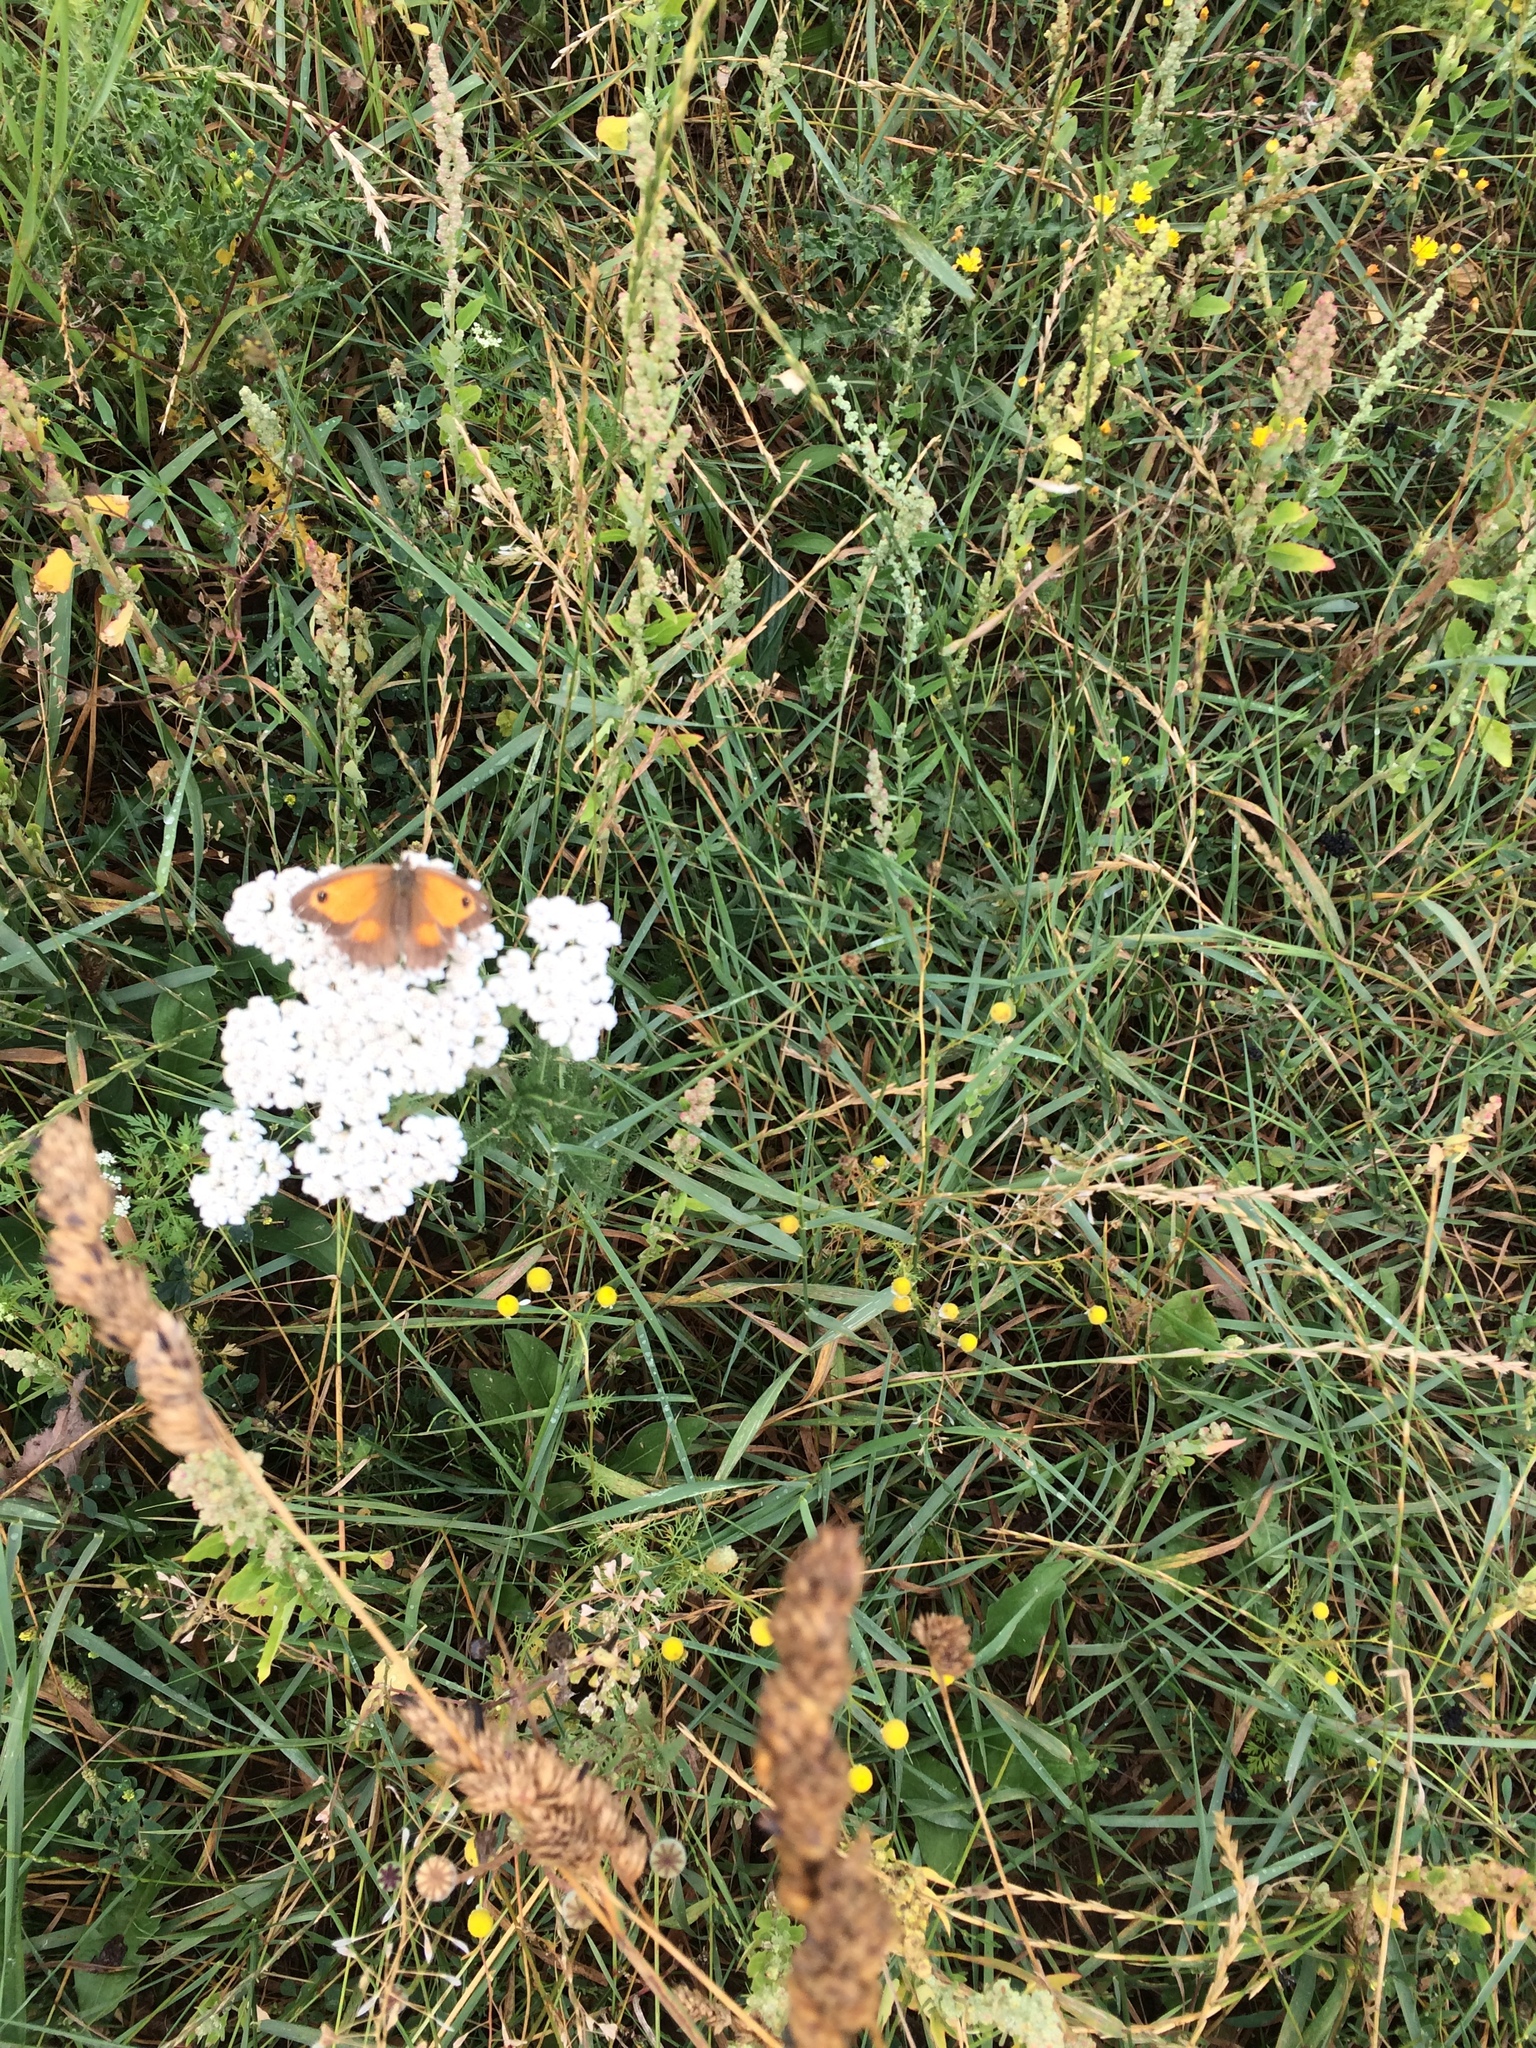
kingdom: Animalia
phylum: Arthropoda
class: Insecta
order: Lepidoptera
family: Nymphalidae
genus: Pyronia
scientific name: Pyronia tithonus
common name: Gatekeeper
